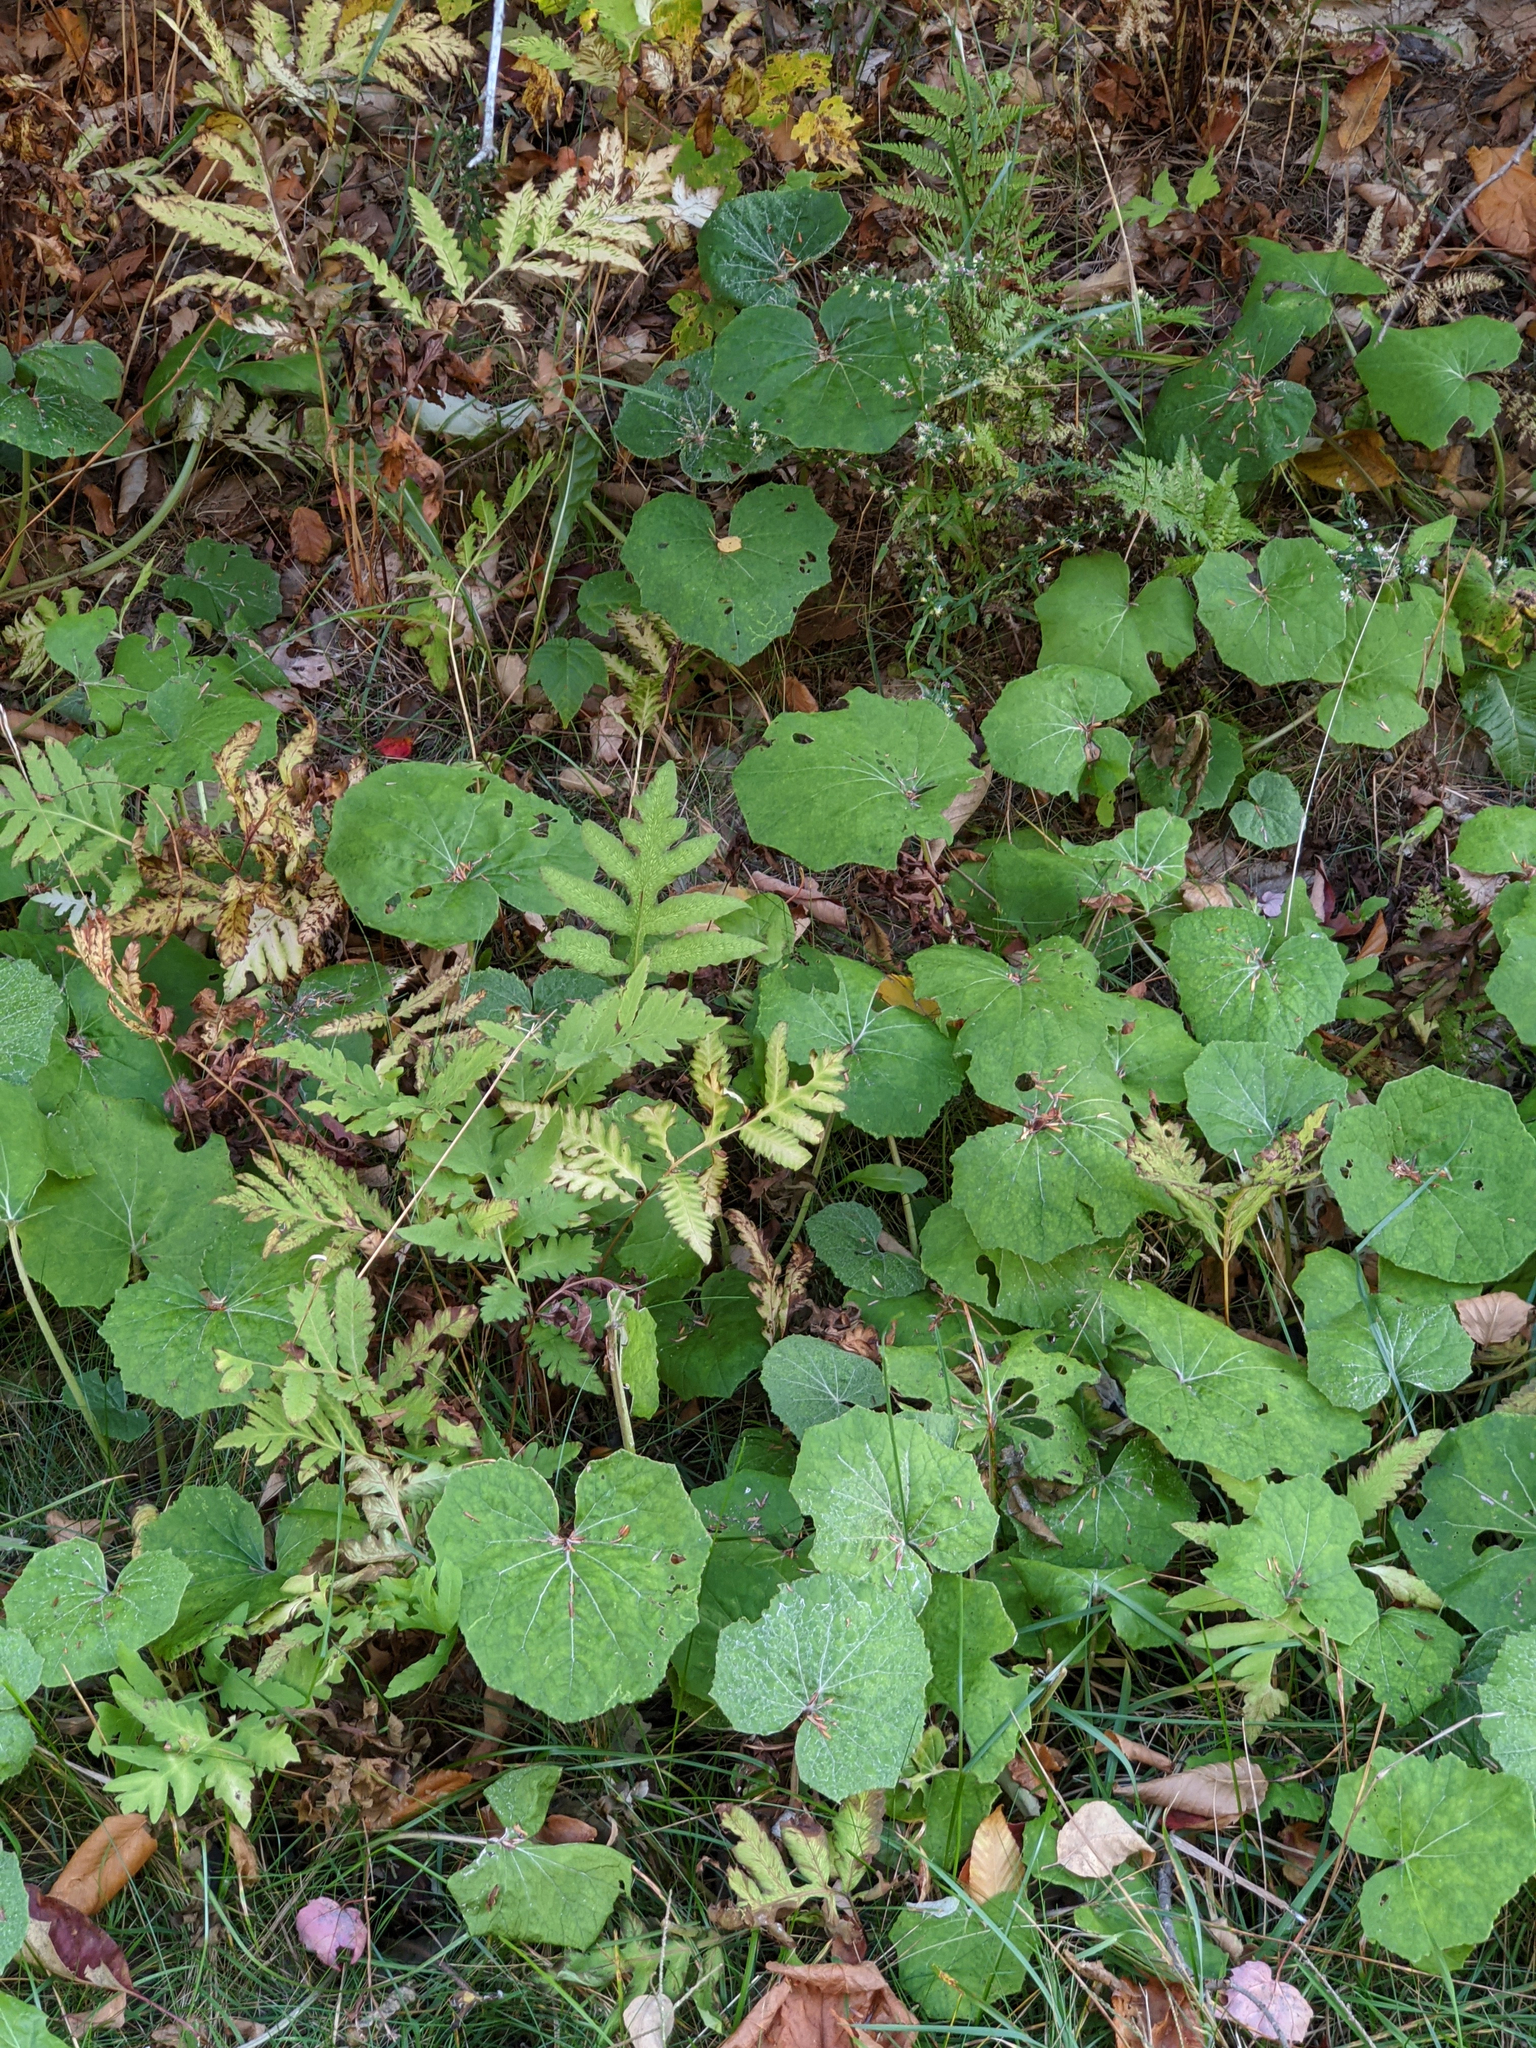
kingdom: Plantae
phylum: Tracheophyta
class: Polypodiopsida
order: Polypodiales
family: Onocleaceae
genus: Onoclea
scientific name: Onoclea sensibilis
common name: Sensitive fern
